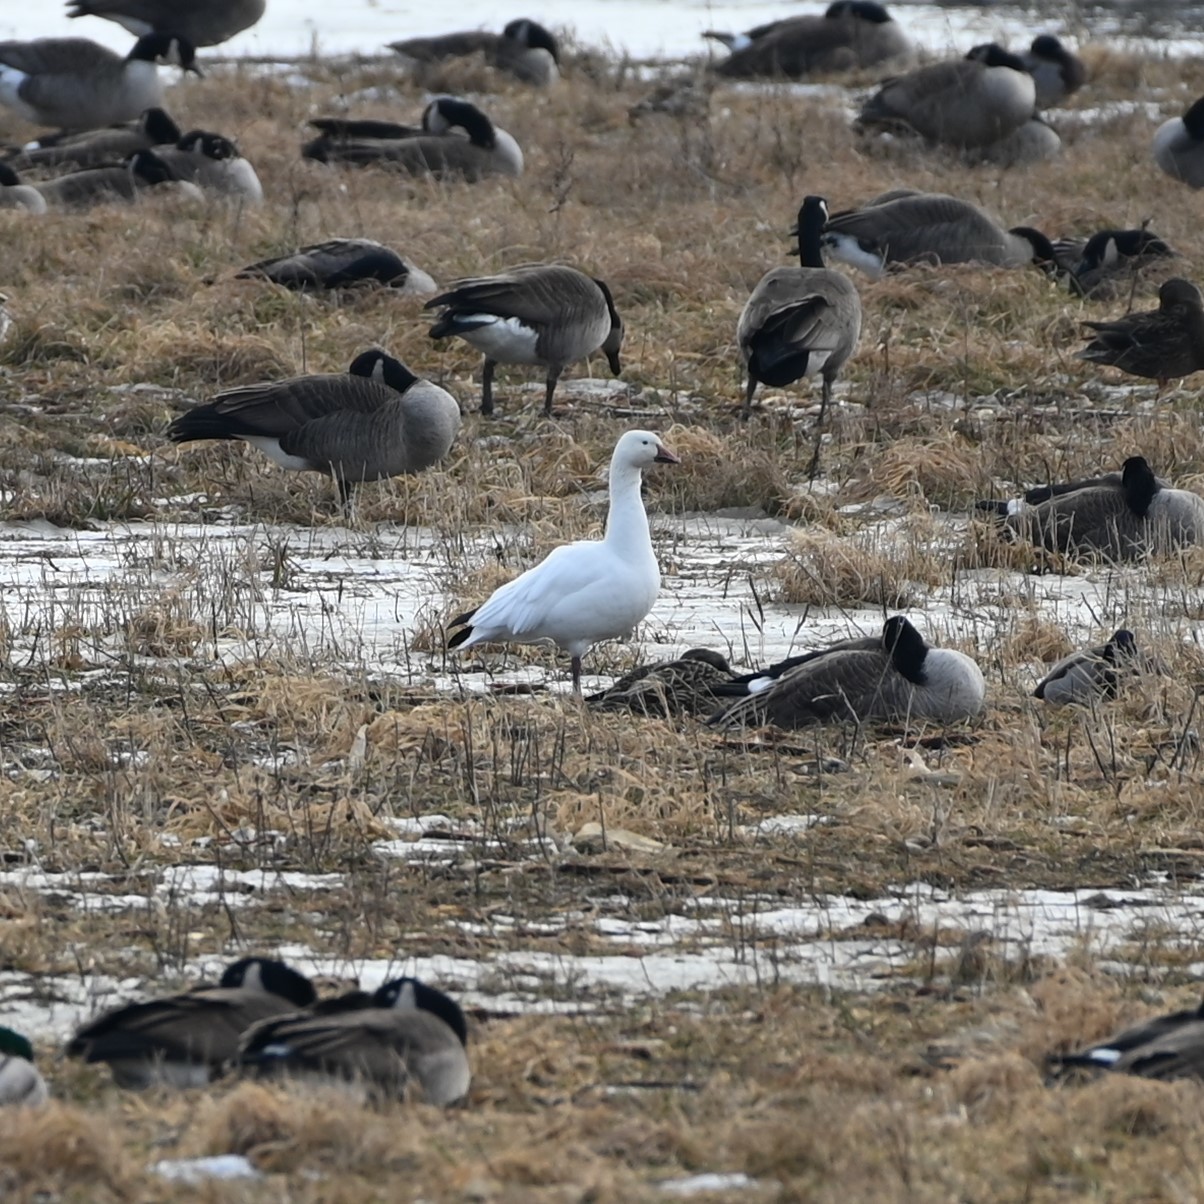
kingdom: Animalia
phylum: Chordata
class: Aves
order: Anseriformes
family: Anatidae
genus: Anser
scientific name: Anser caerulescens
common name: Snow goose
